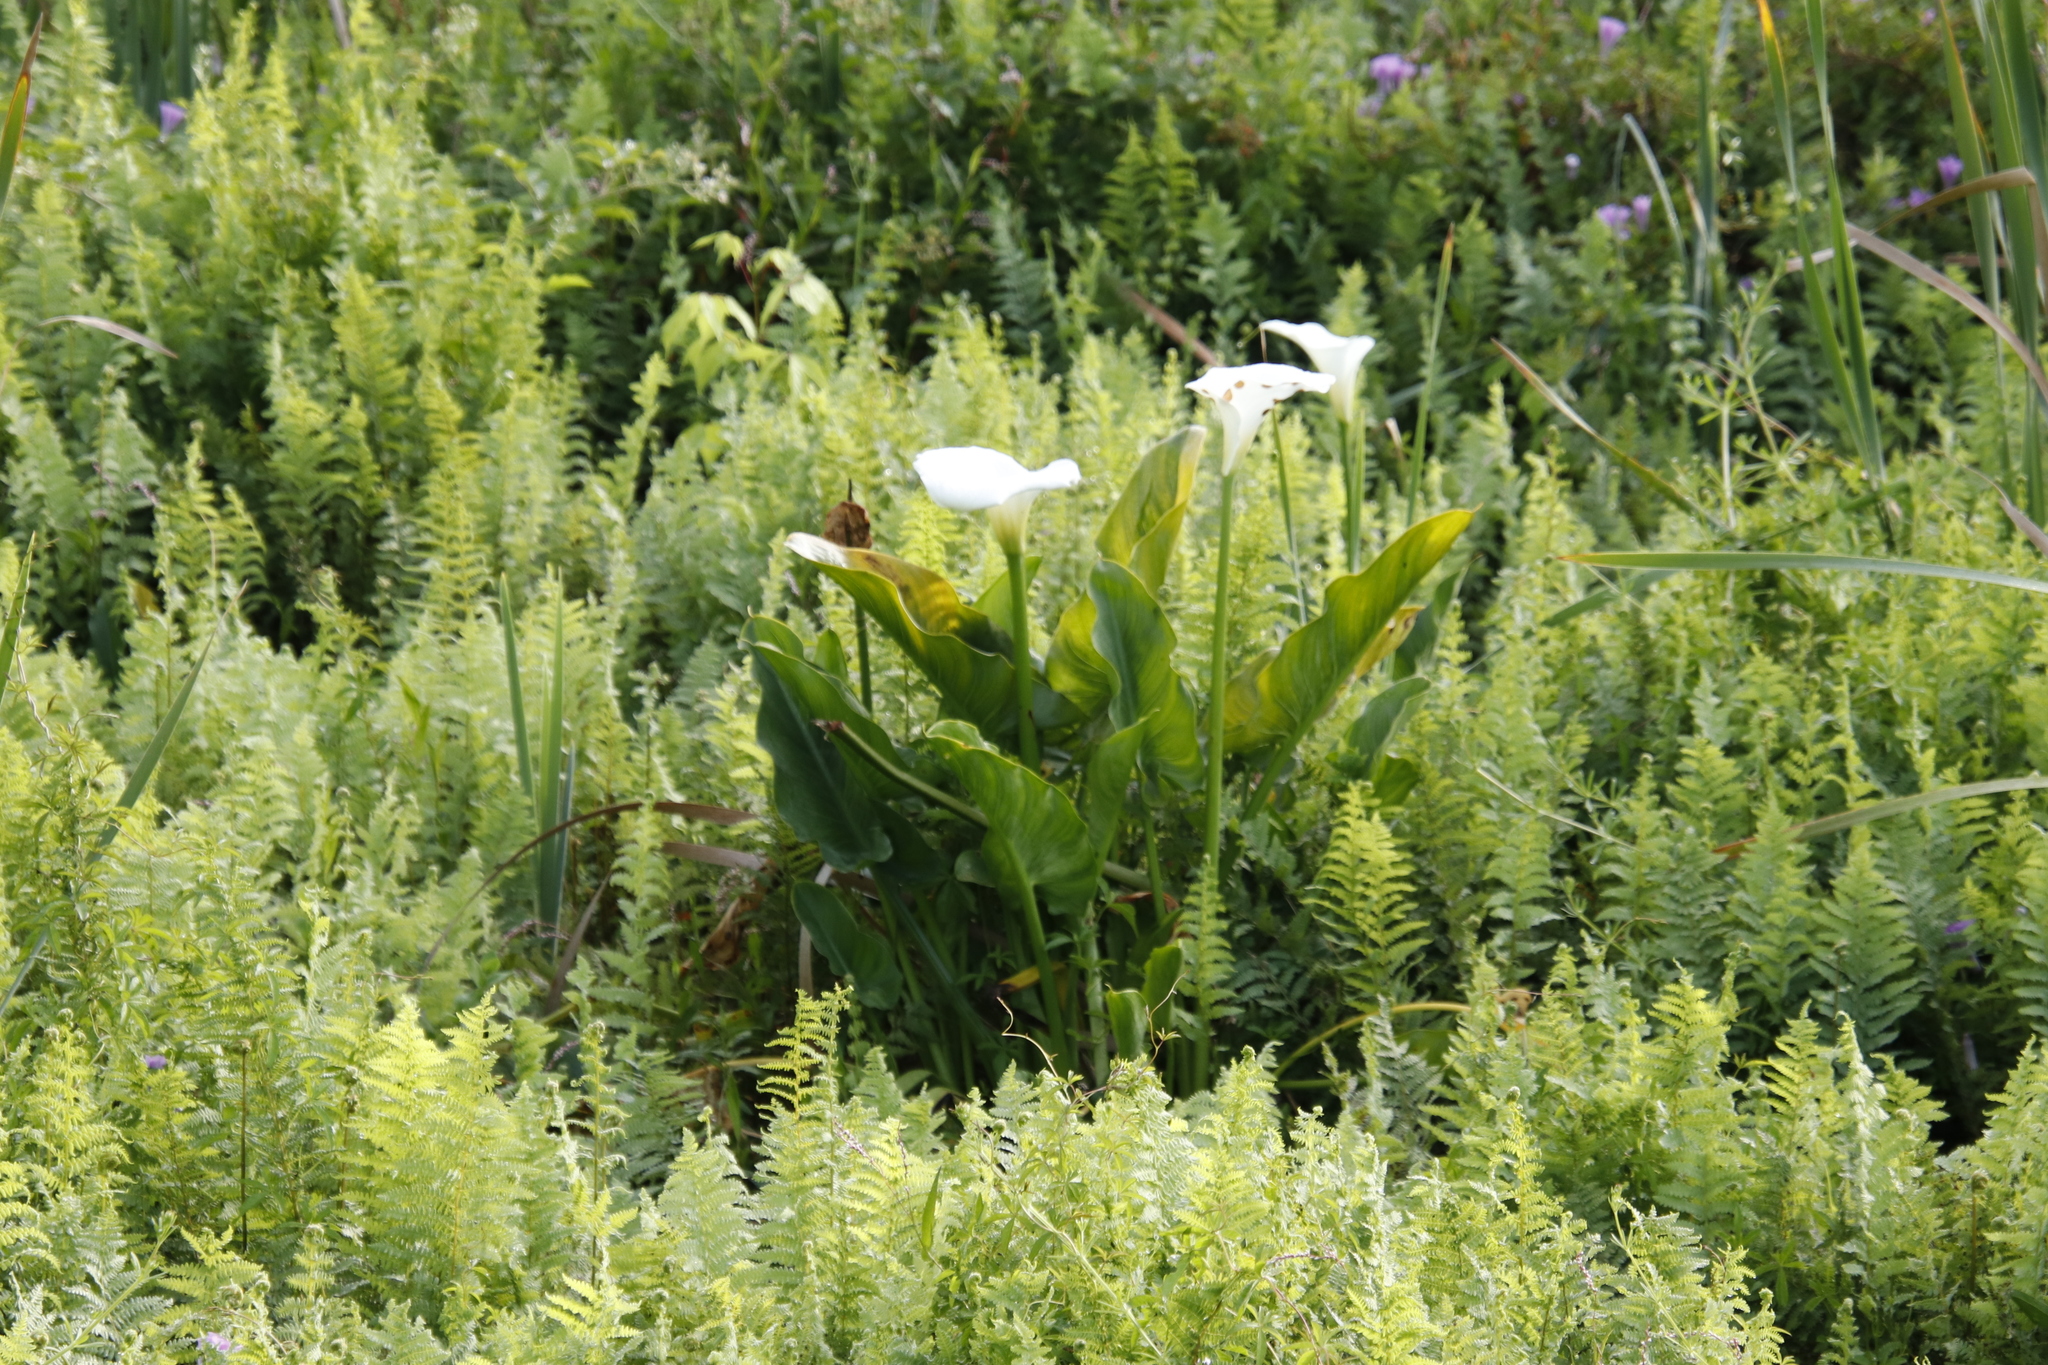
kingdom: Plantae
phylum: Tracheophyta
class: Liliopsida
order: Alismatales
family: Araceae
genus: Zantedeschia
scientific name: Zantedeschia aethiopica
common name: Altar-lily
